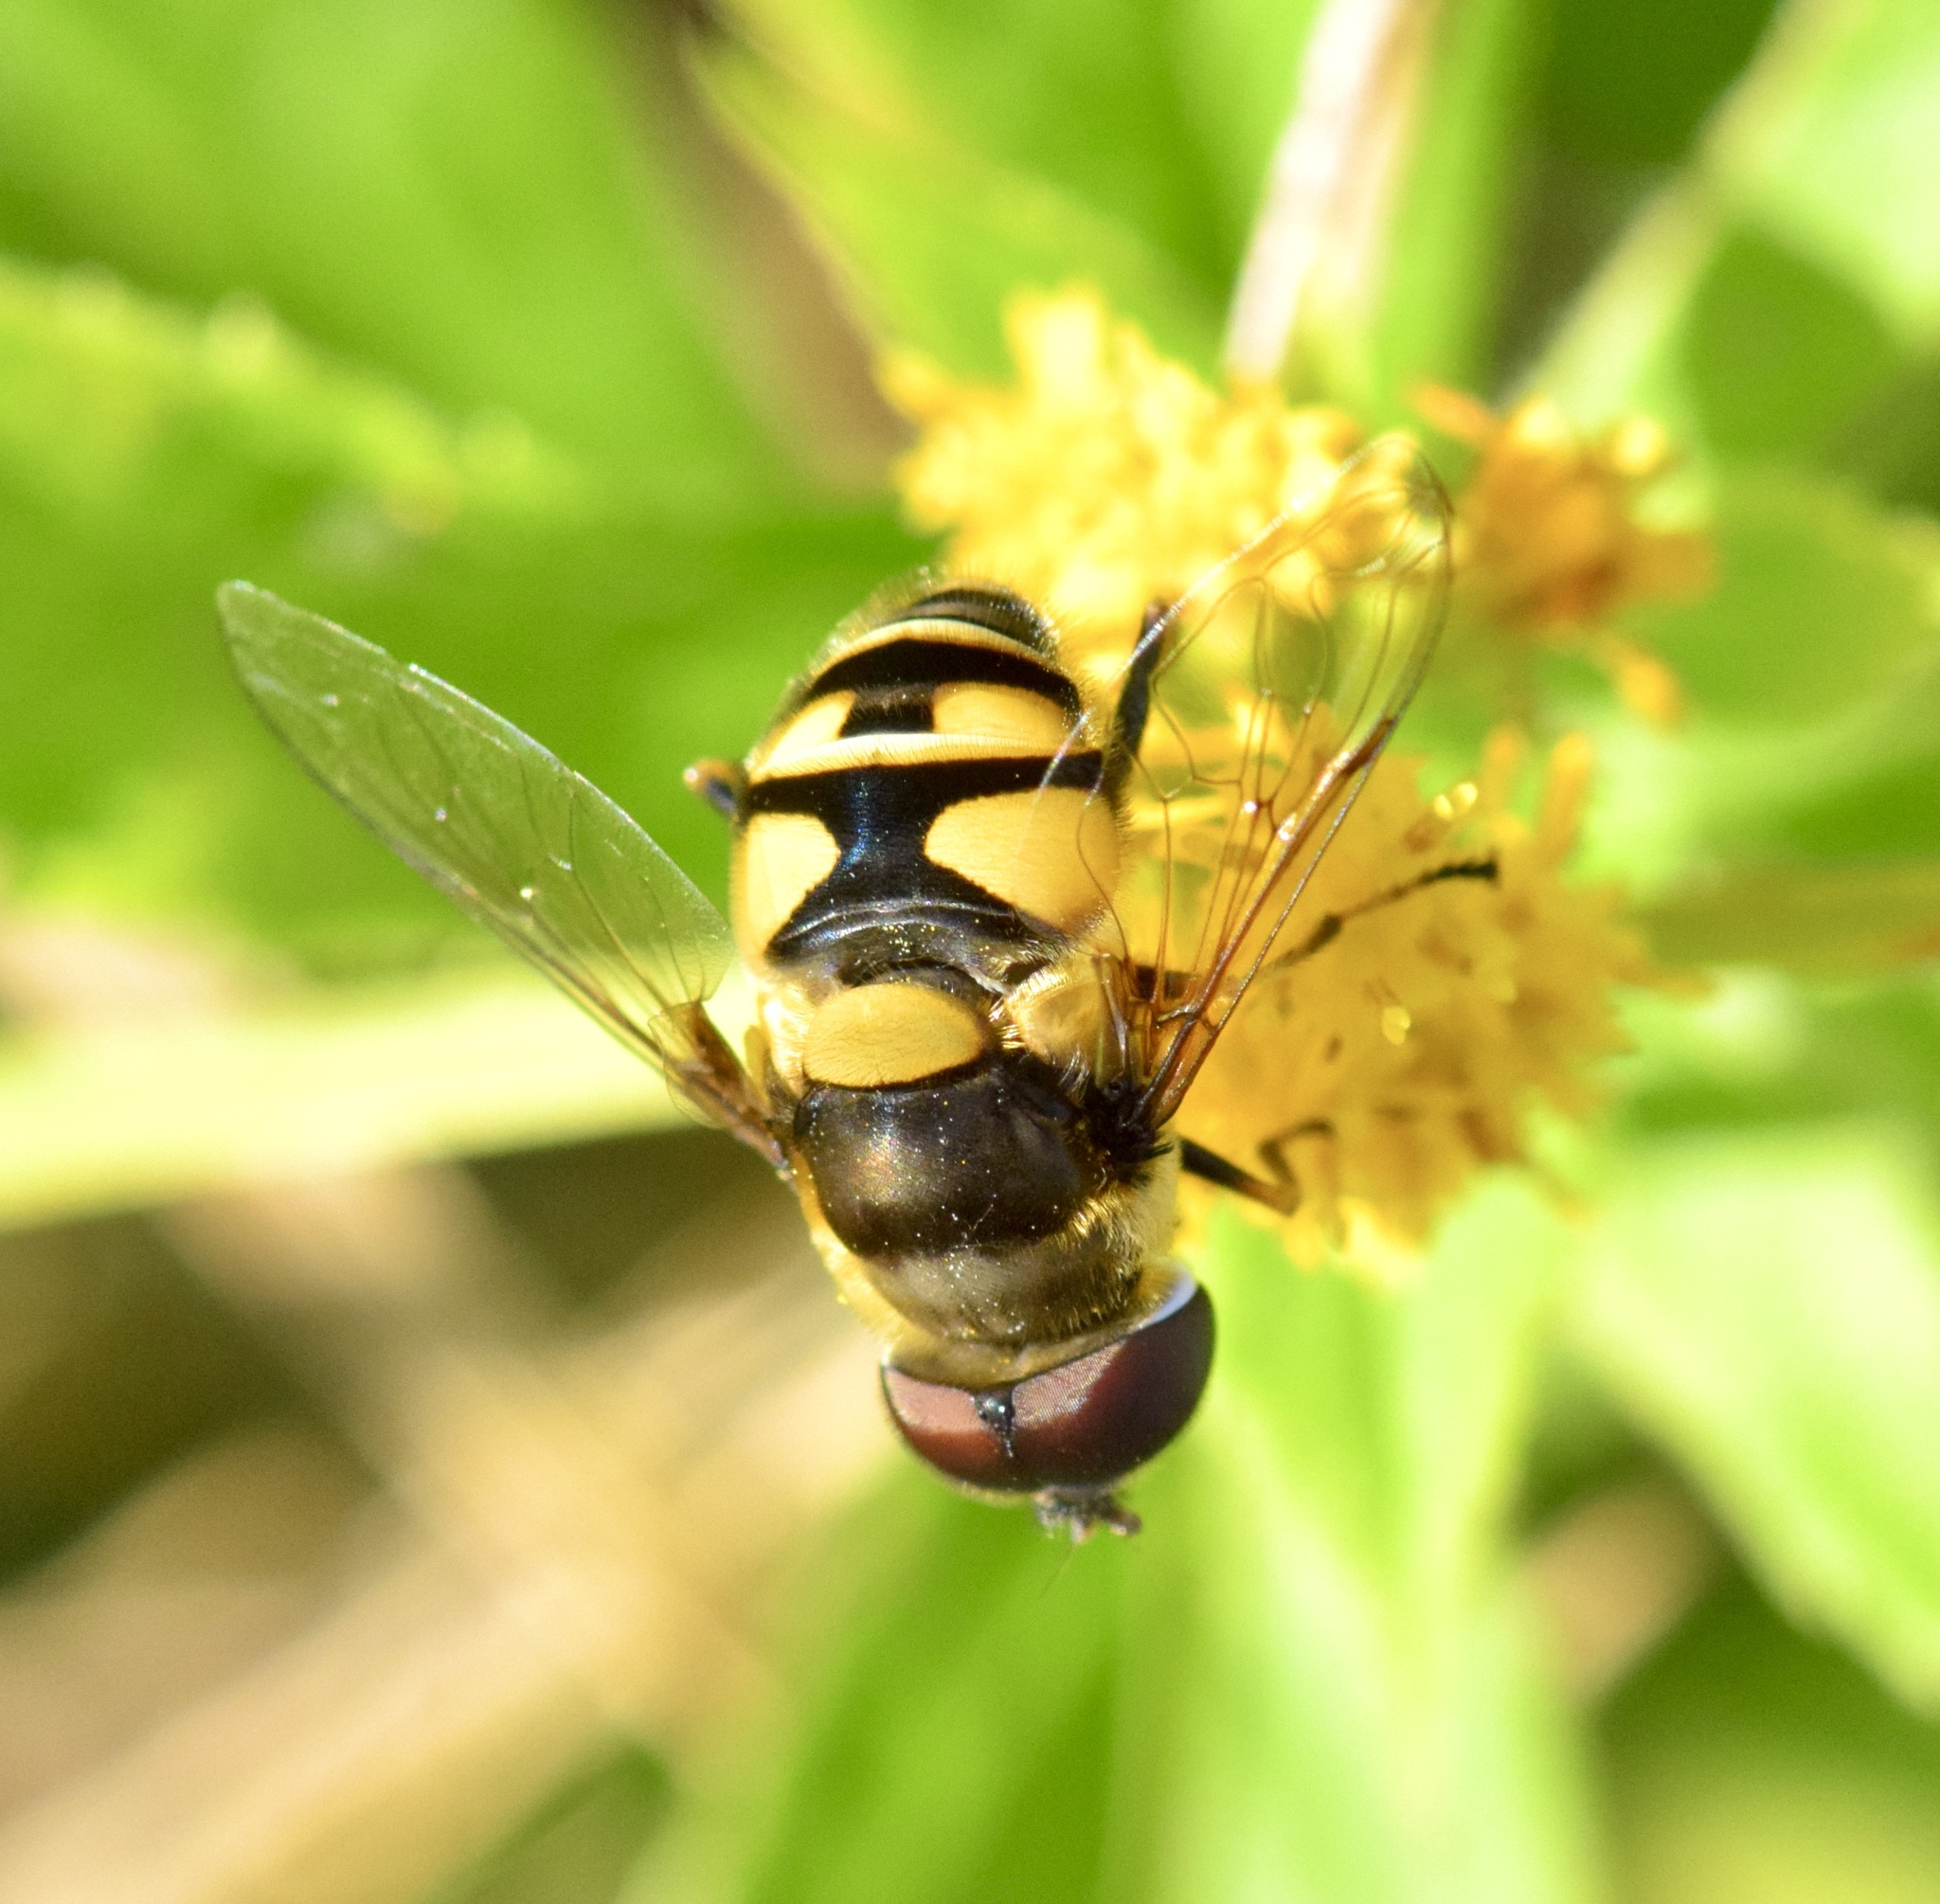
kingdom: Animalia
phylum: Arthropoda
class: Insecta
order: Diptera
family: Syrphidae
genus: Eristalis
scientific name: Eristalis transversa
